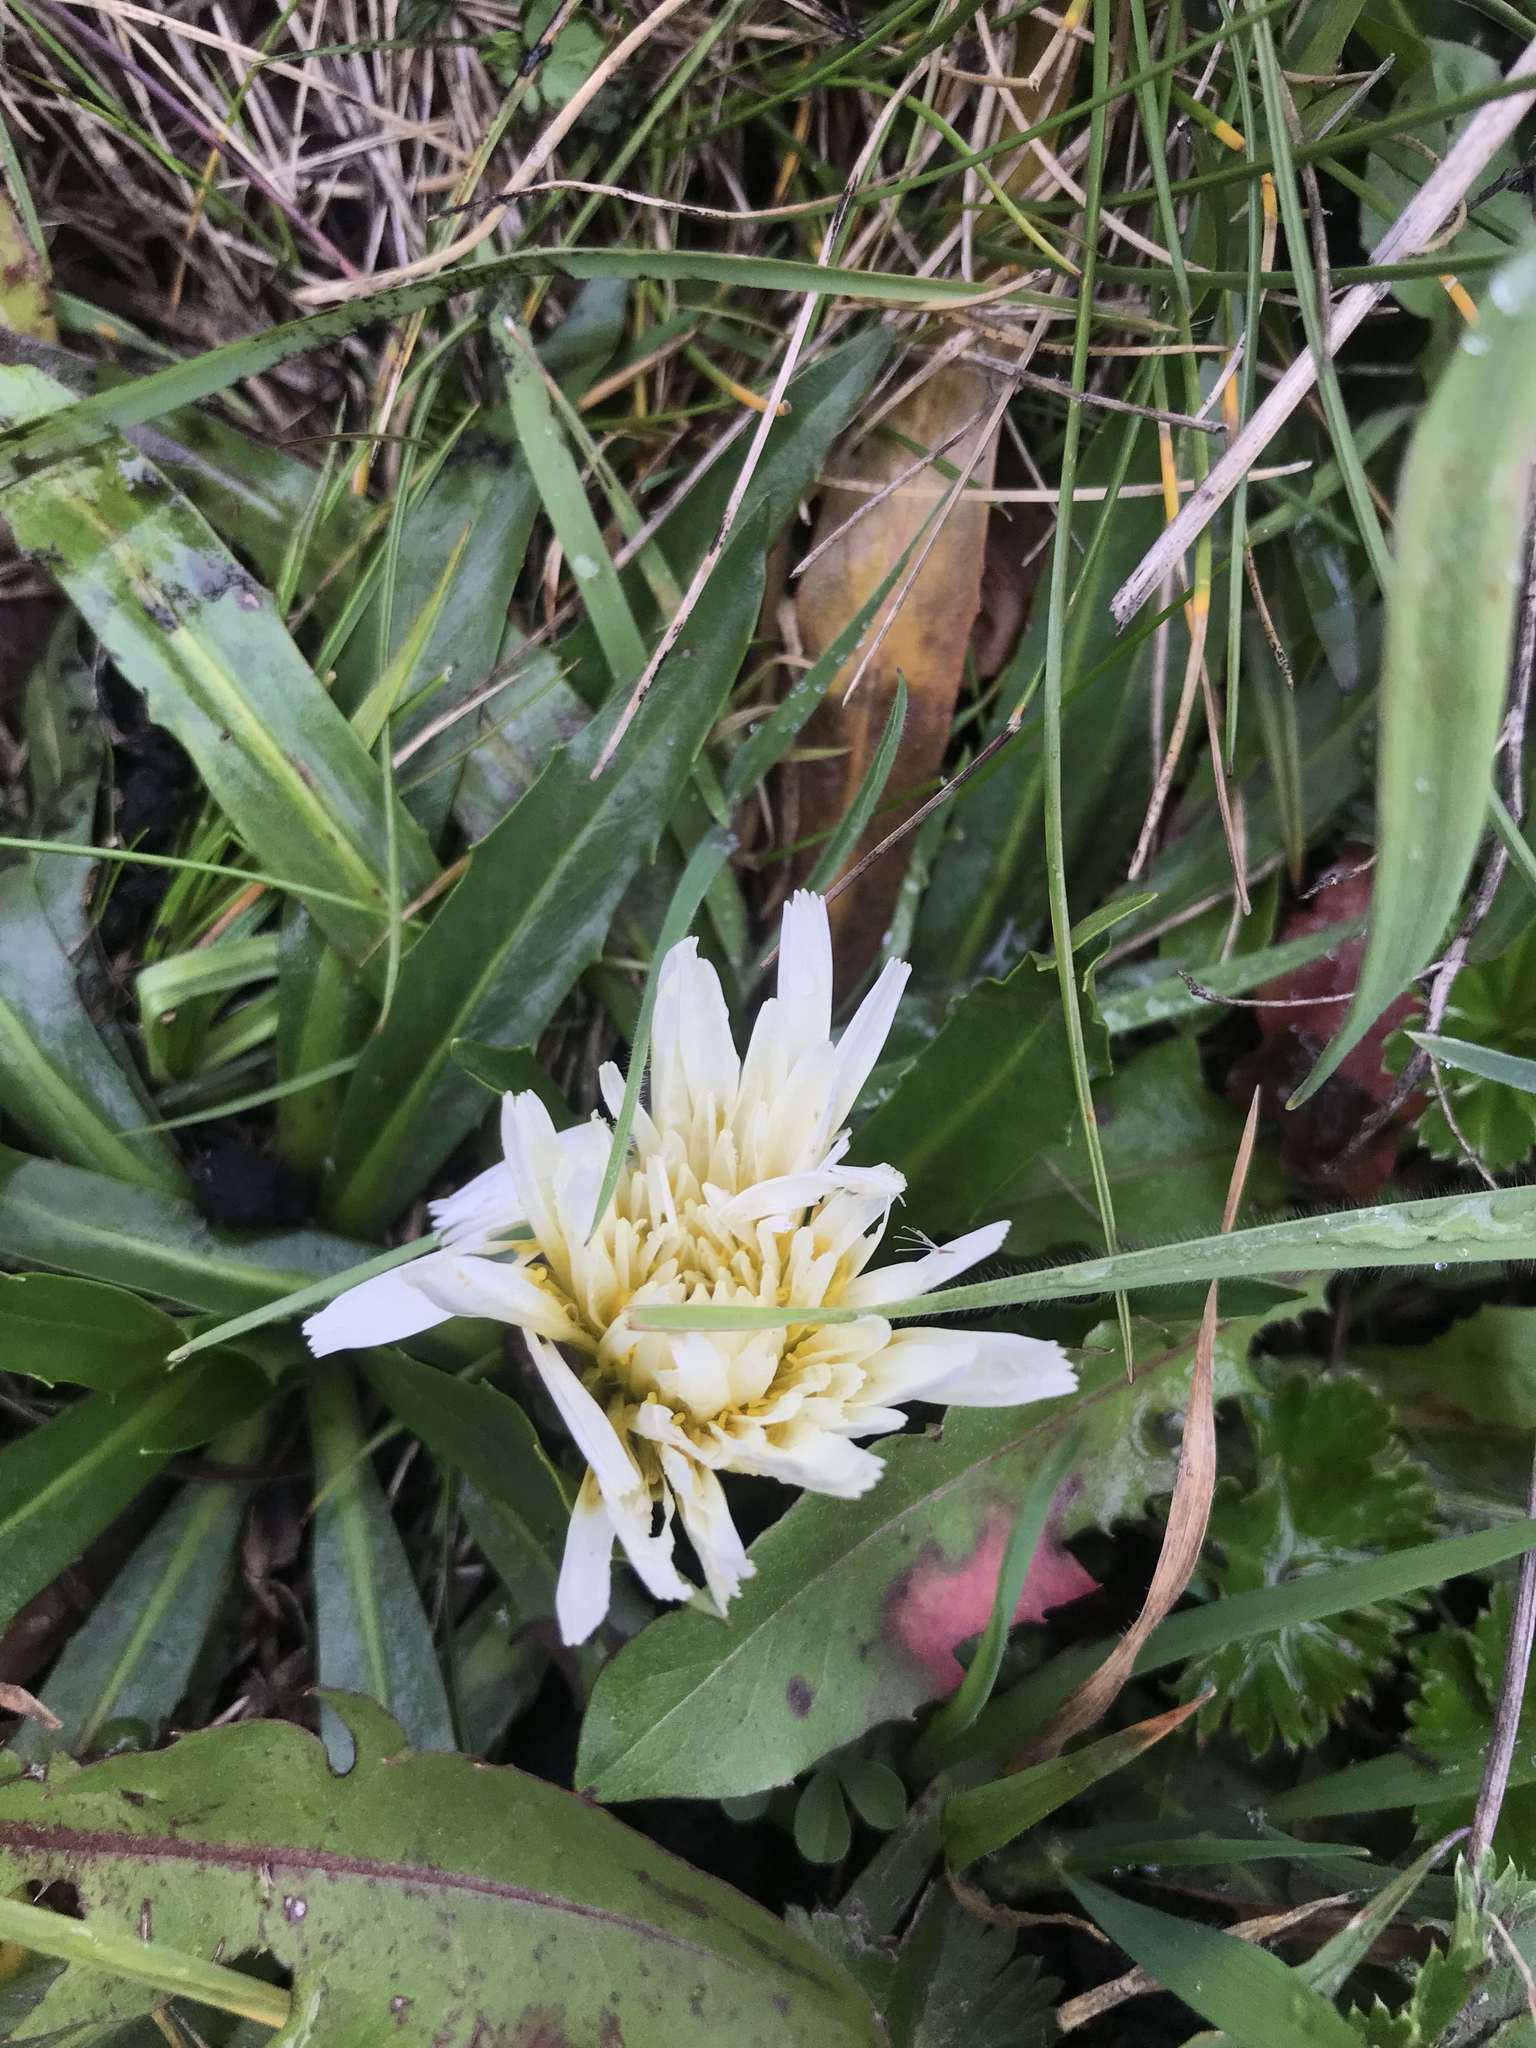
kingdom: Plantae
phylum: Tracheophyta
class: Magnoliopsida
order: Asterales
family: Asteraceae
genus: Hypochaeris
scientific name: Hypochaeris sessiliflora
